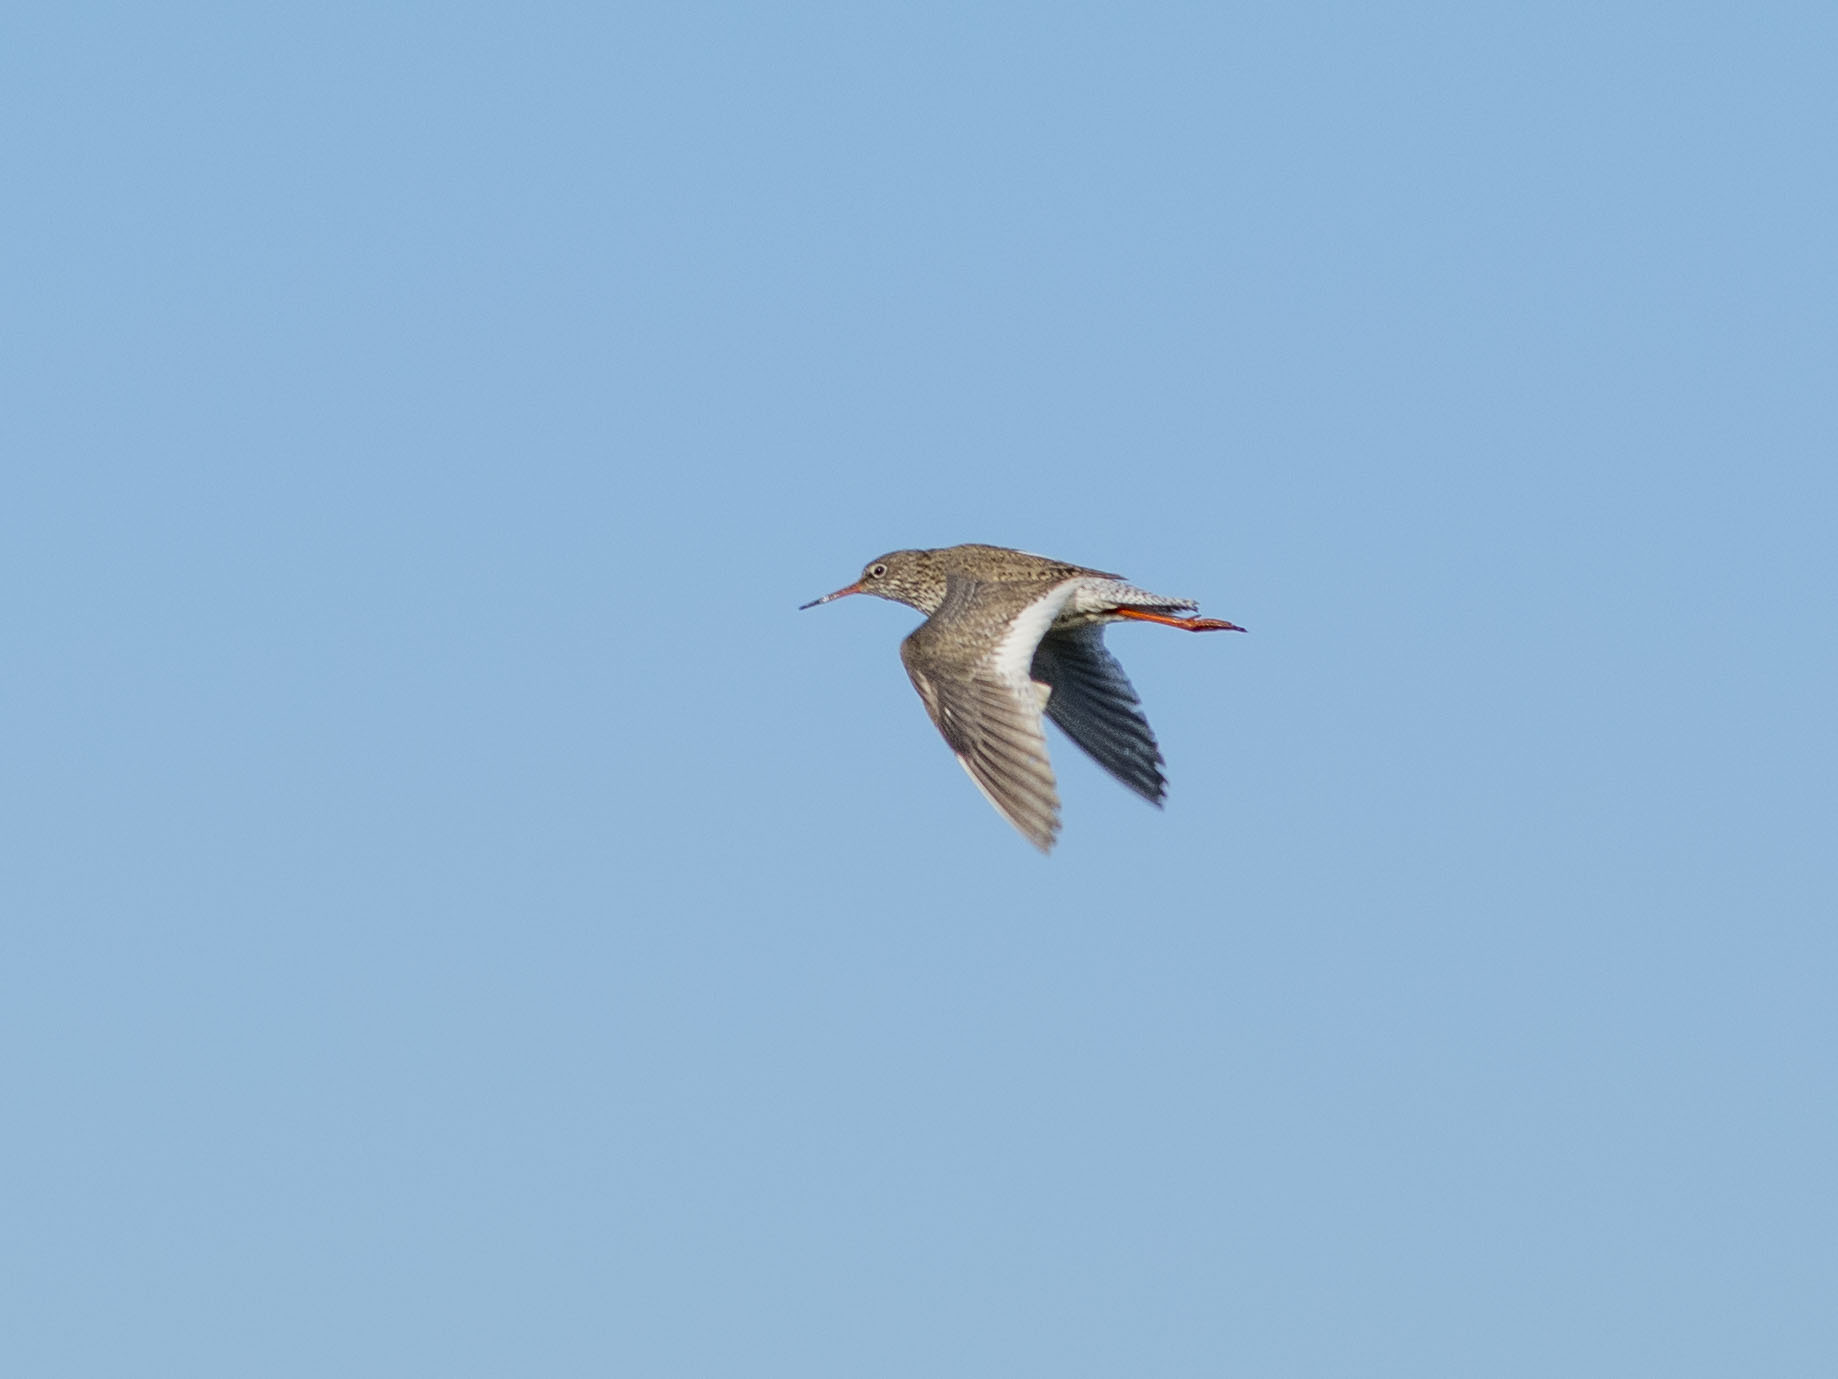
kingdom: Animalia
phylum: Chordata
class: Aves
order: Charadriiformes
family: Scolopacidae
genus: Tringa
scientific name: Tringa totanus
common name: Common redshank
